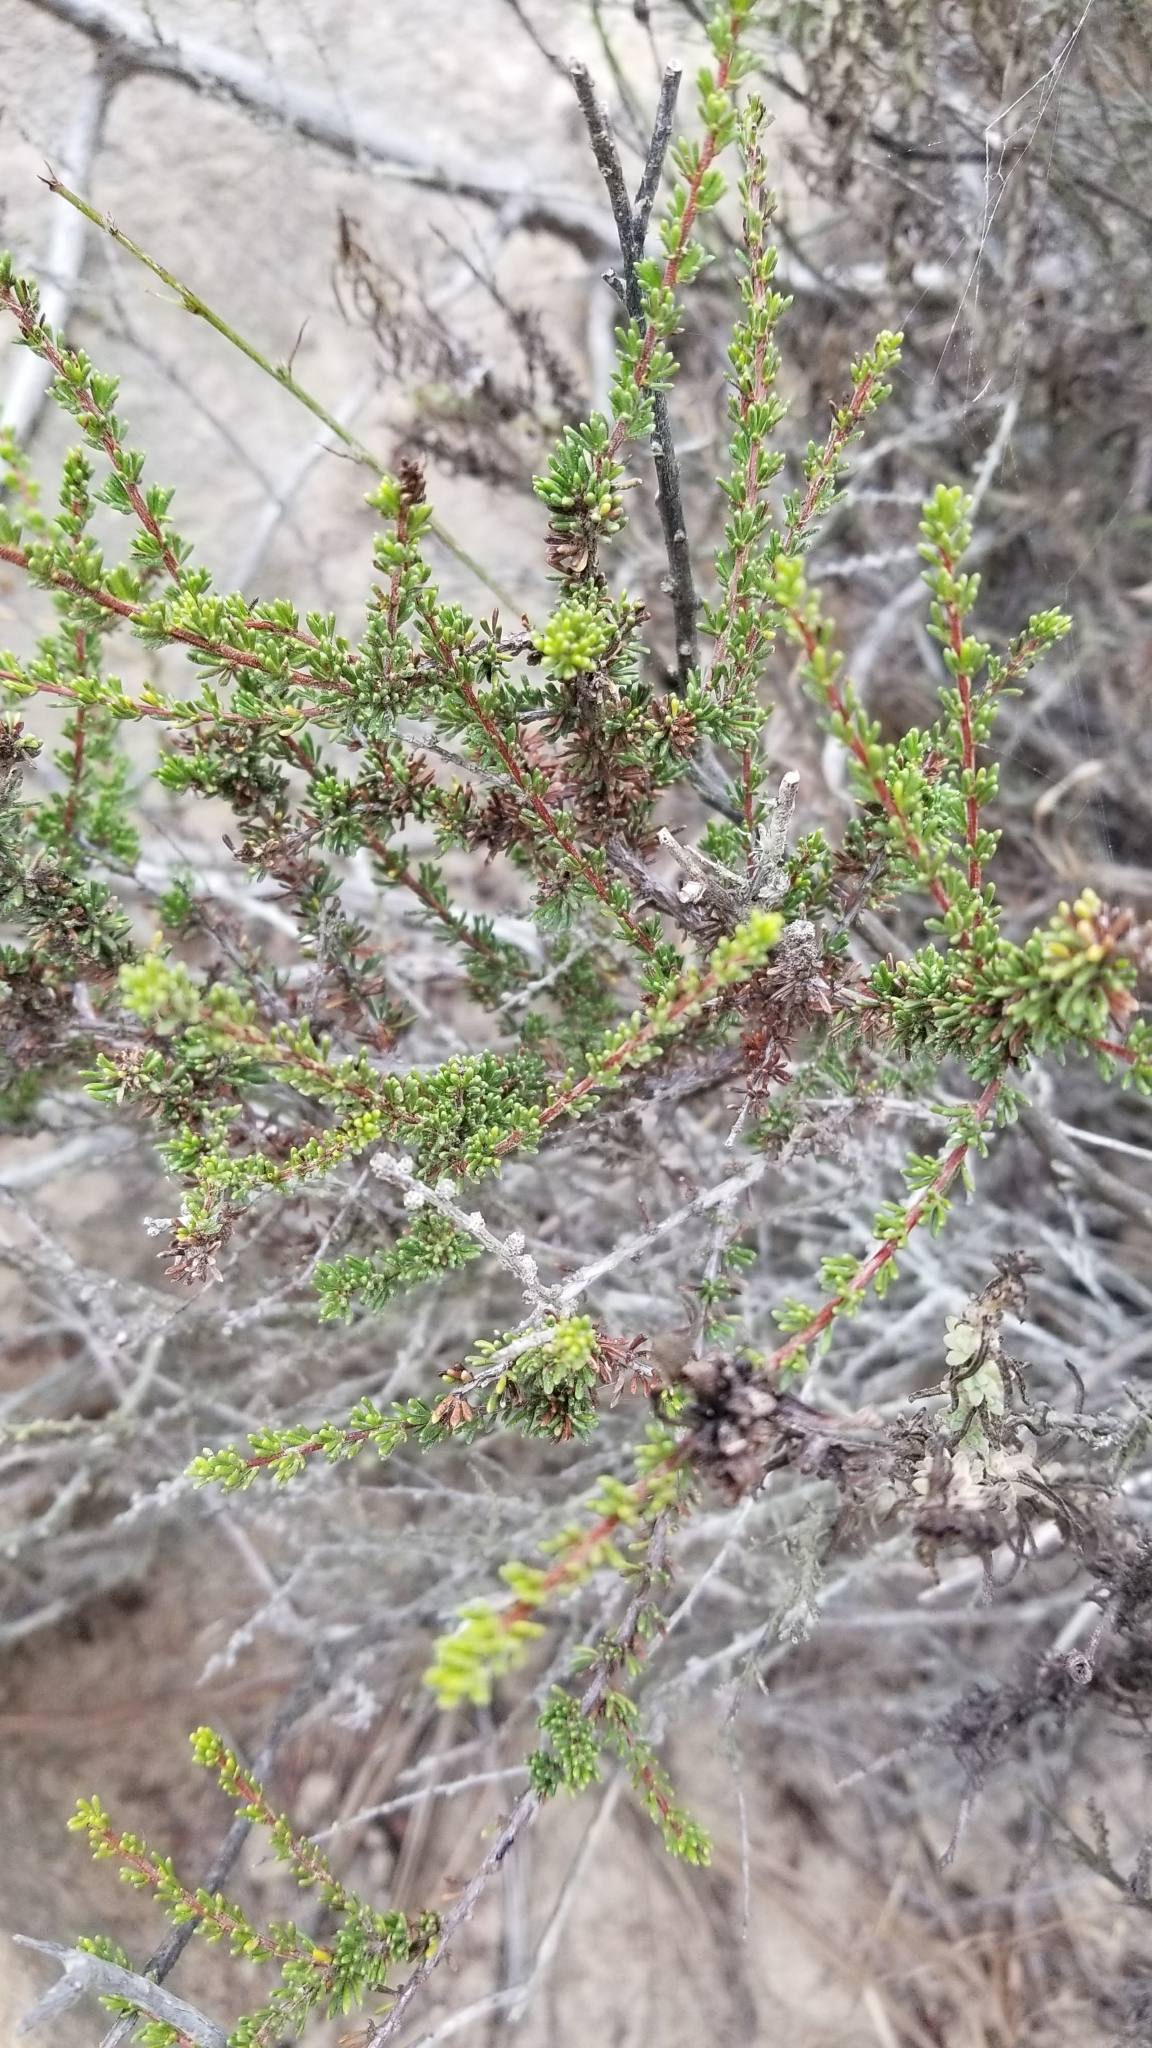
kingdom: Plantae
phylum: Tracheophyta
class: Magnoliopsida
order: Rosales
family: Rosaceae
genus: Adenostoma
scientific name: Adenostoma fasciculatum
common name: Chamise
